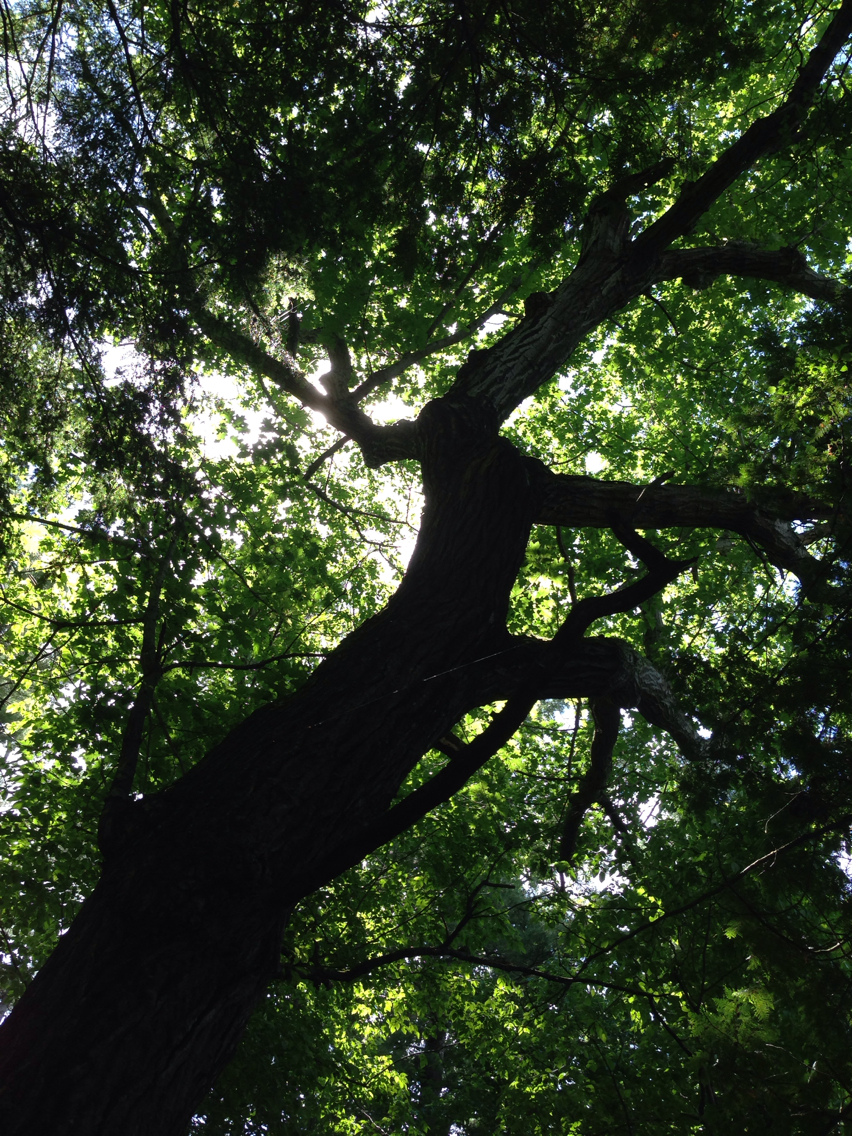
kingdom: Plantae
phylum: Tracheophyta
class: Magnoliopsida
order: Fagales
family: Fagaceae
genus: Quercus
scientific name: Quercus rubra
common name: Red oak
